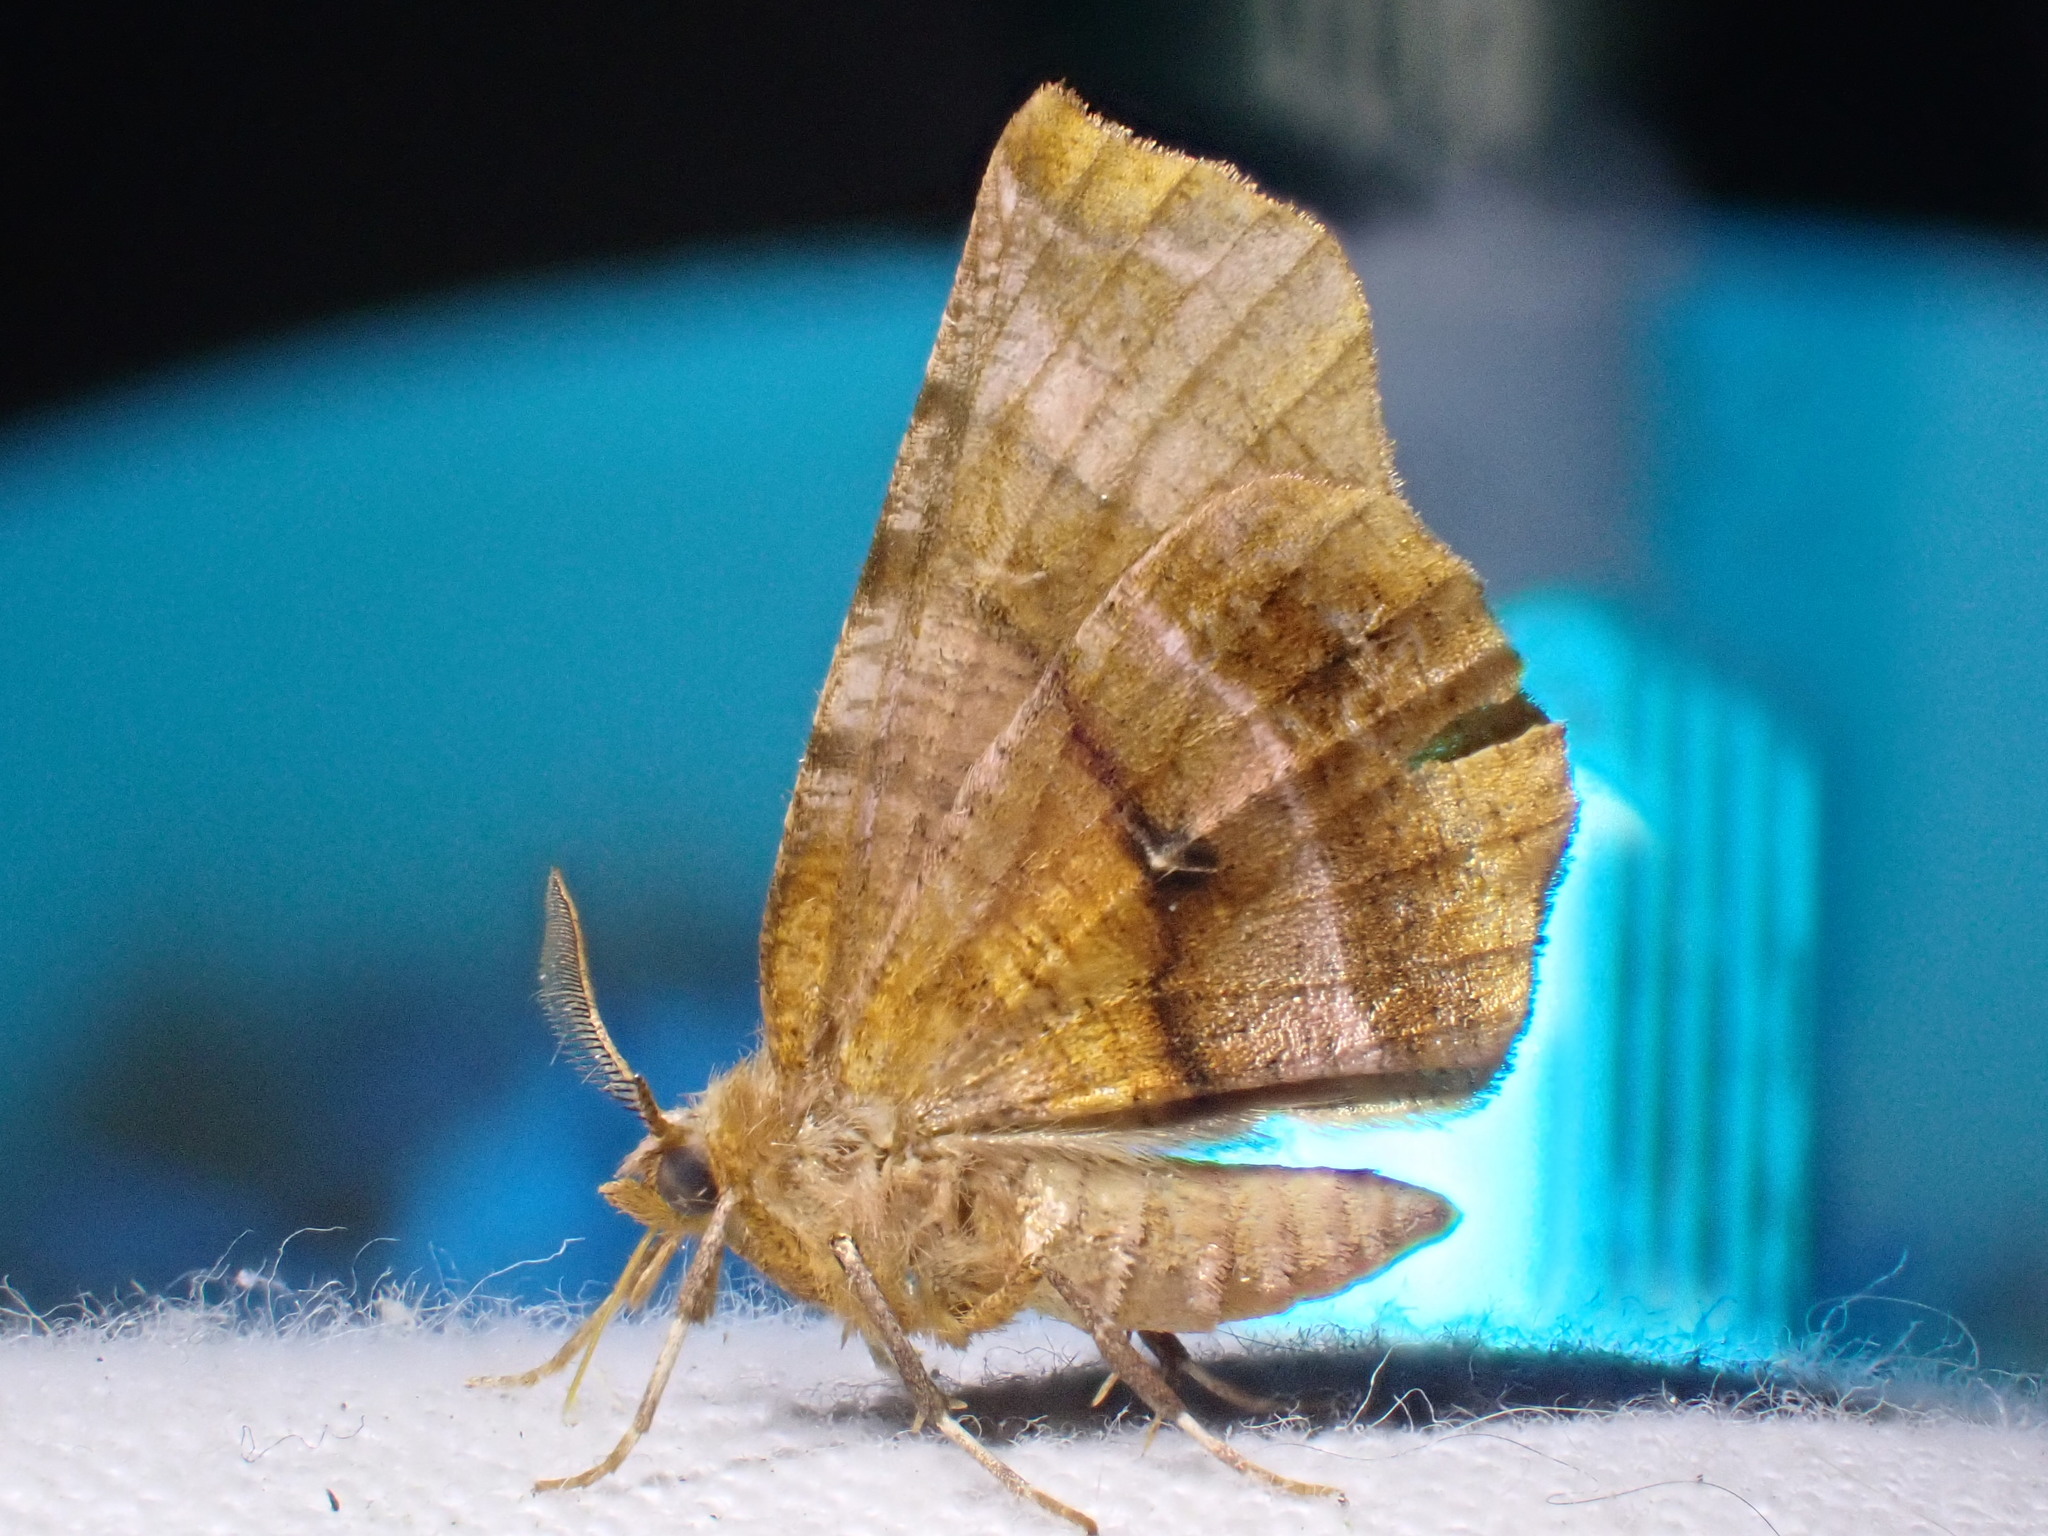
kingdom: Animalia
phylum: Arthropoda
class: Insecta
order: Lepidoptera
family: Geometridae
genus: Selenia
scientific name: Selenia dentaria
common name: Early thorn
